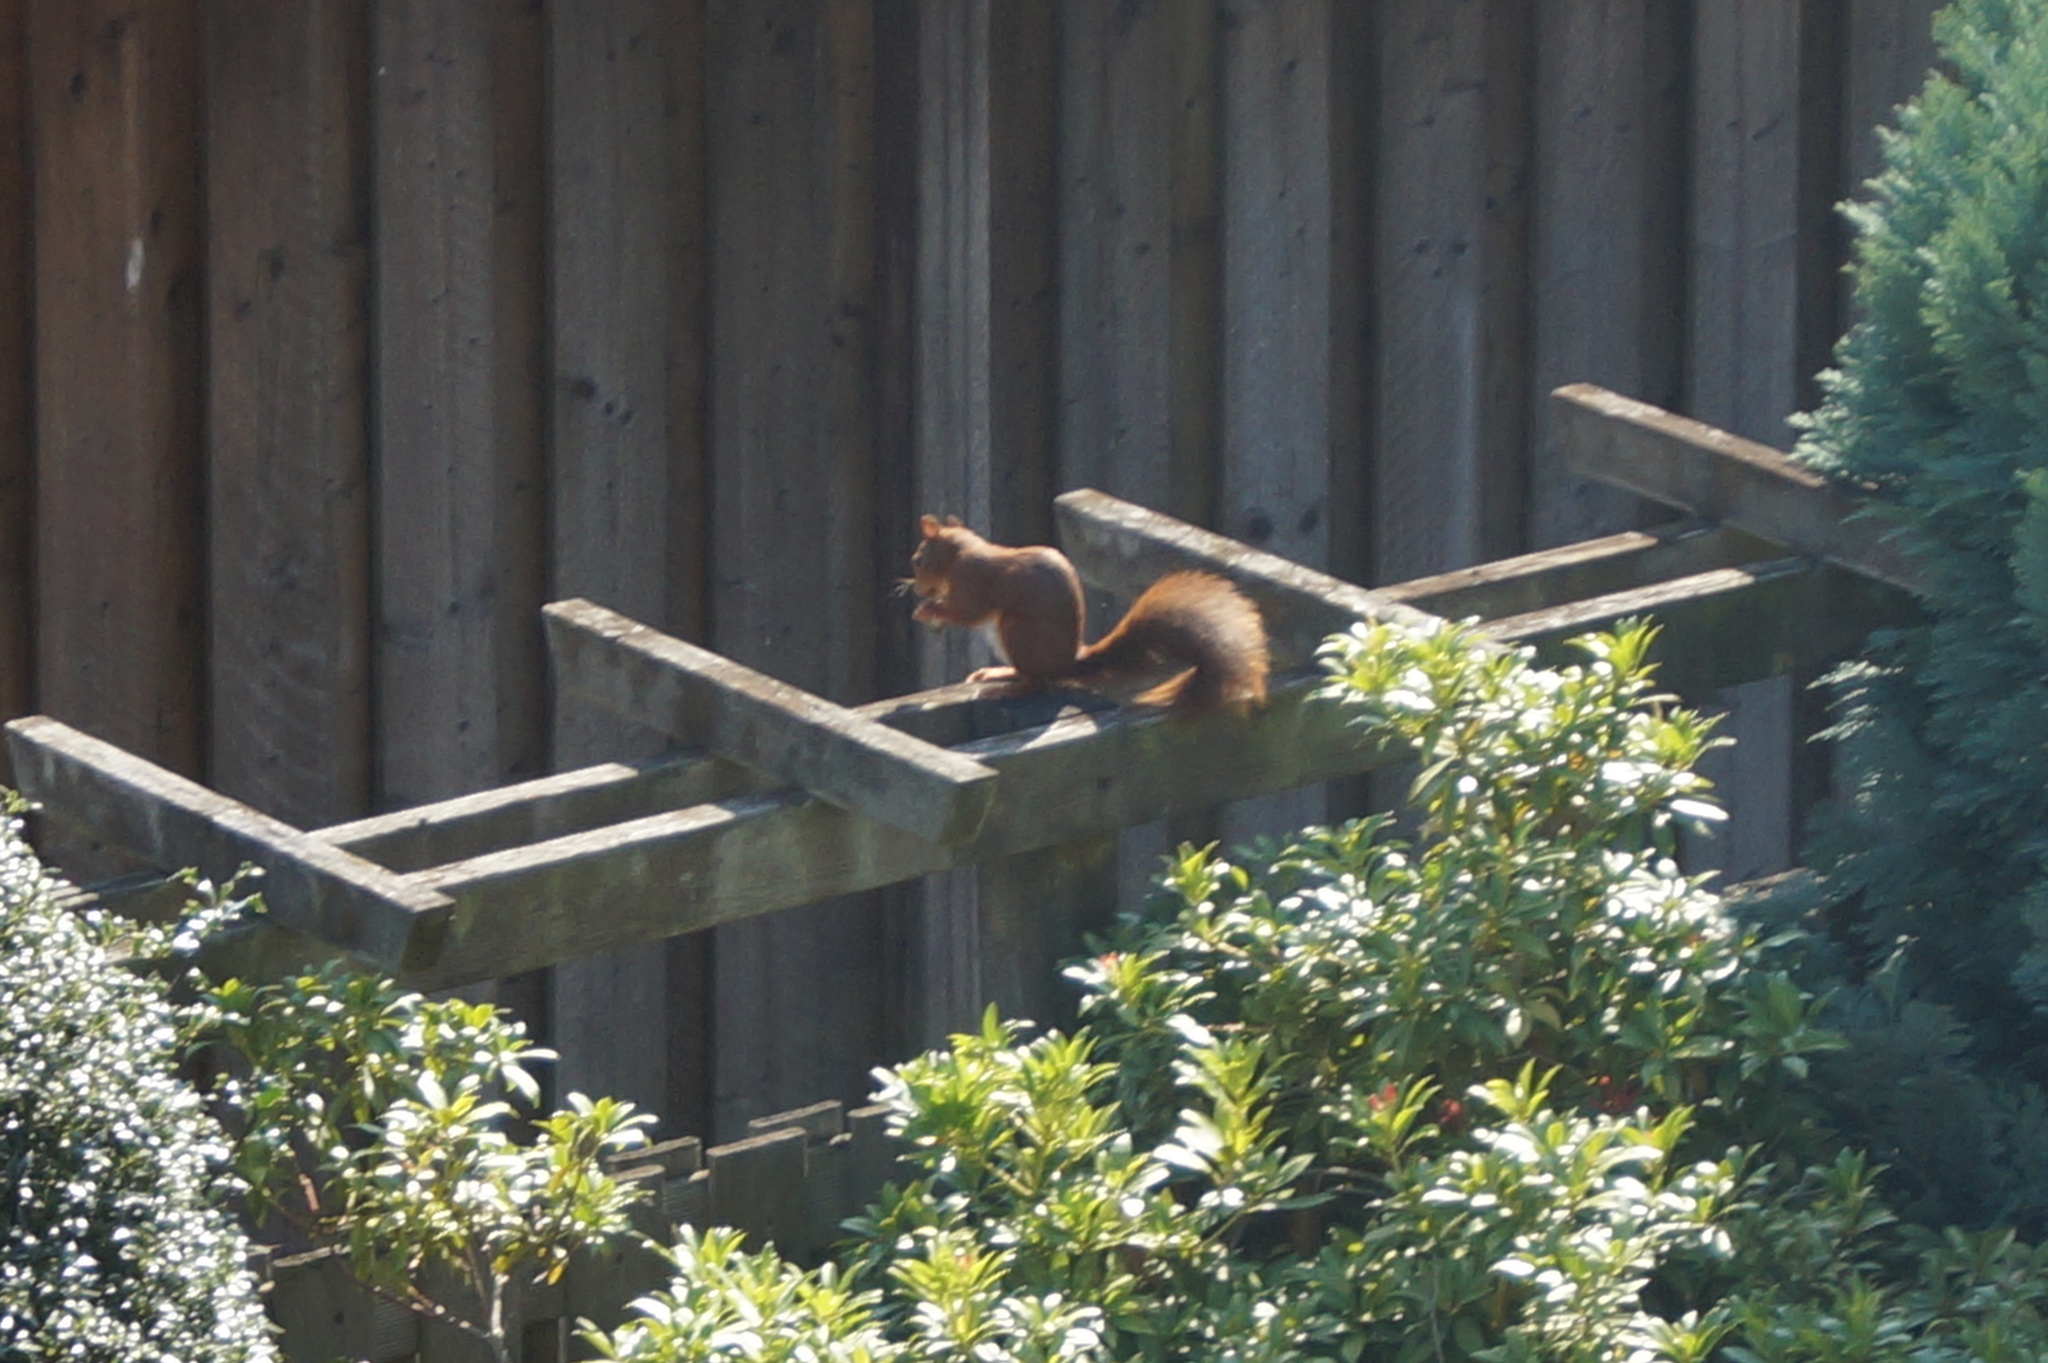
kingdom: Animalia
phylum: Chordata
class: Mammalia
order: Rodentia
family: Sciuridae
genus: Sciurus
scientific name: Sciurus vulgaris
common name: Eurasian red squirrel
